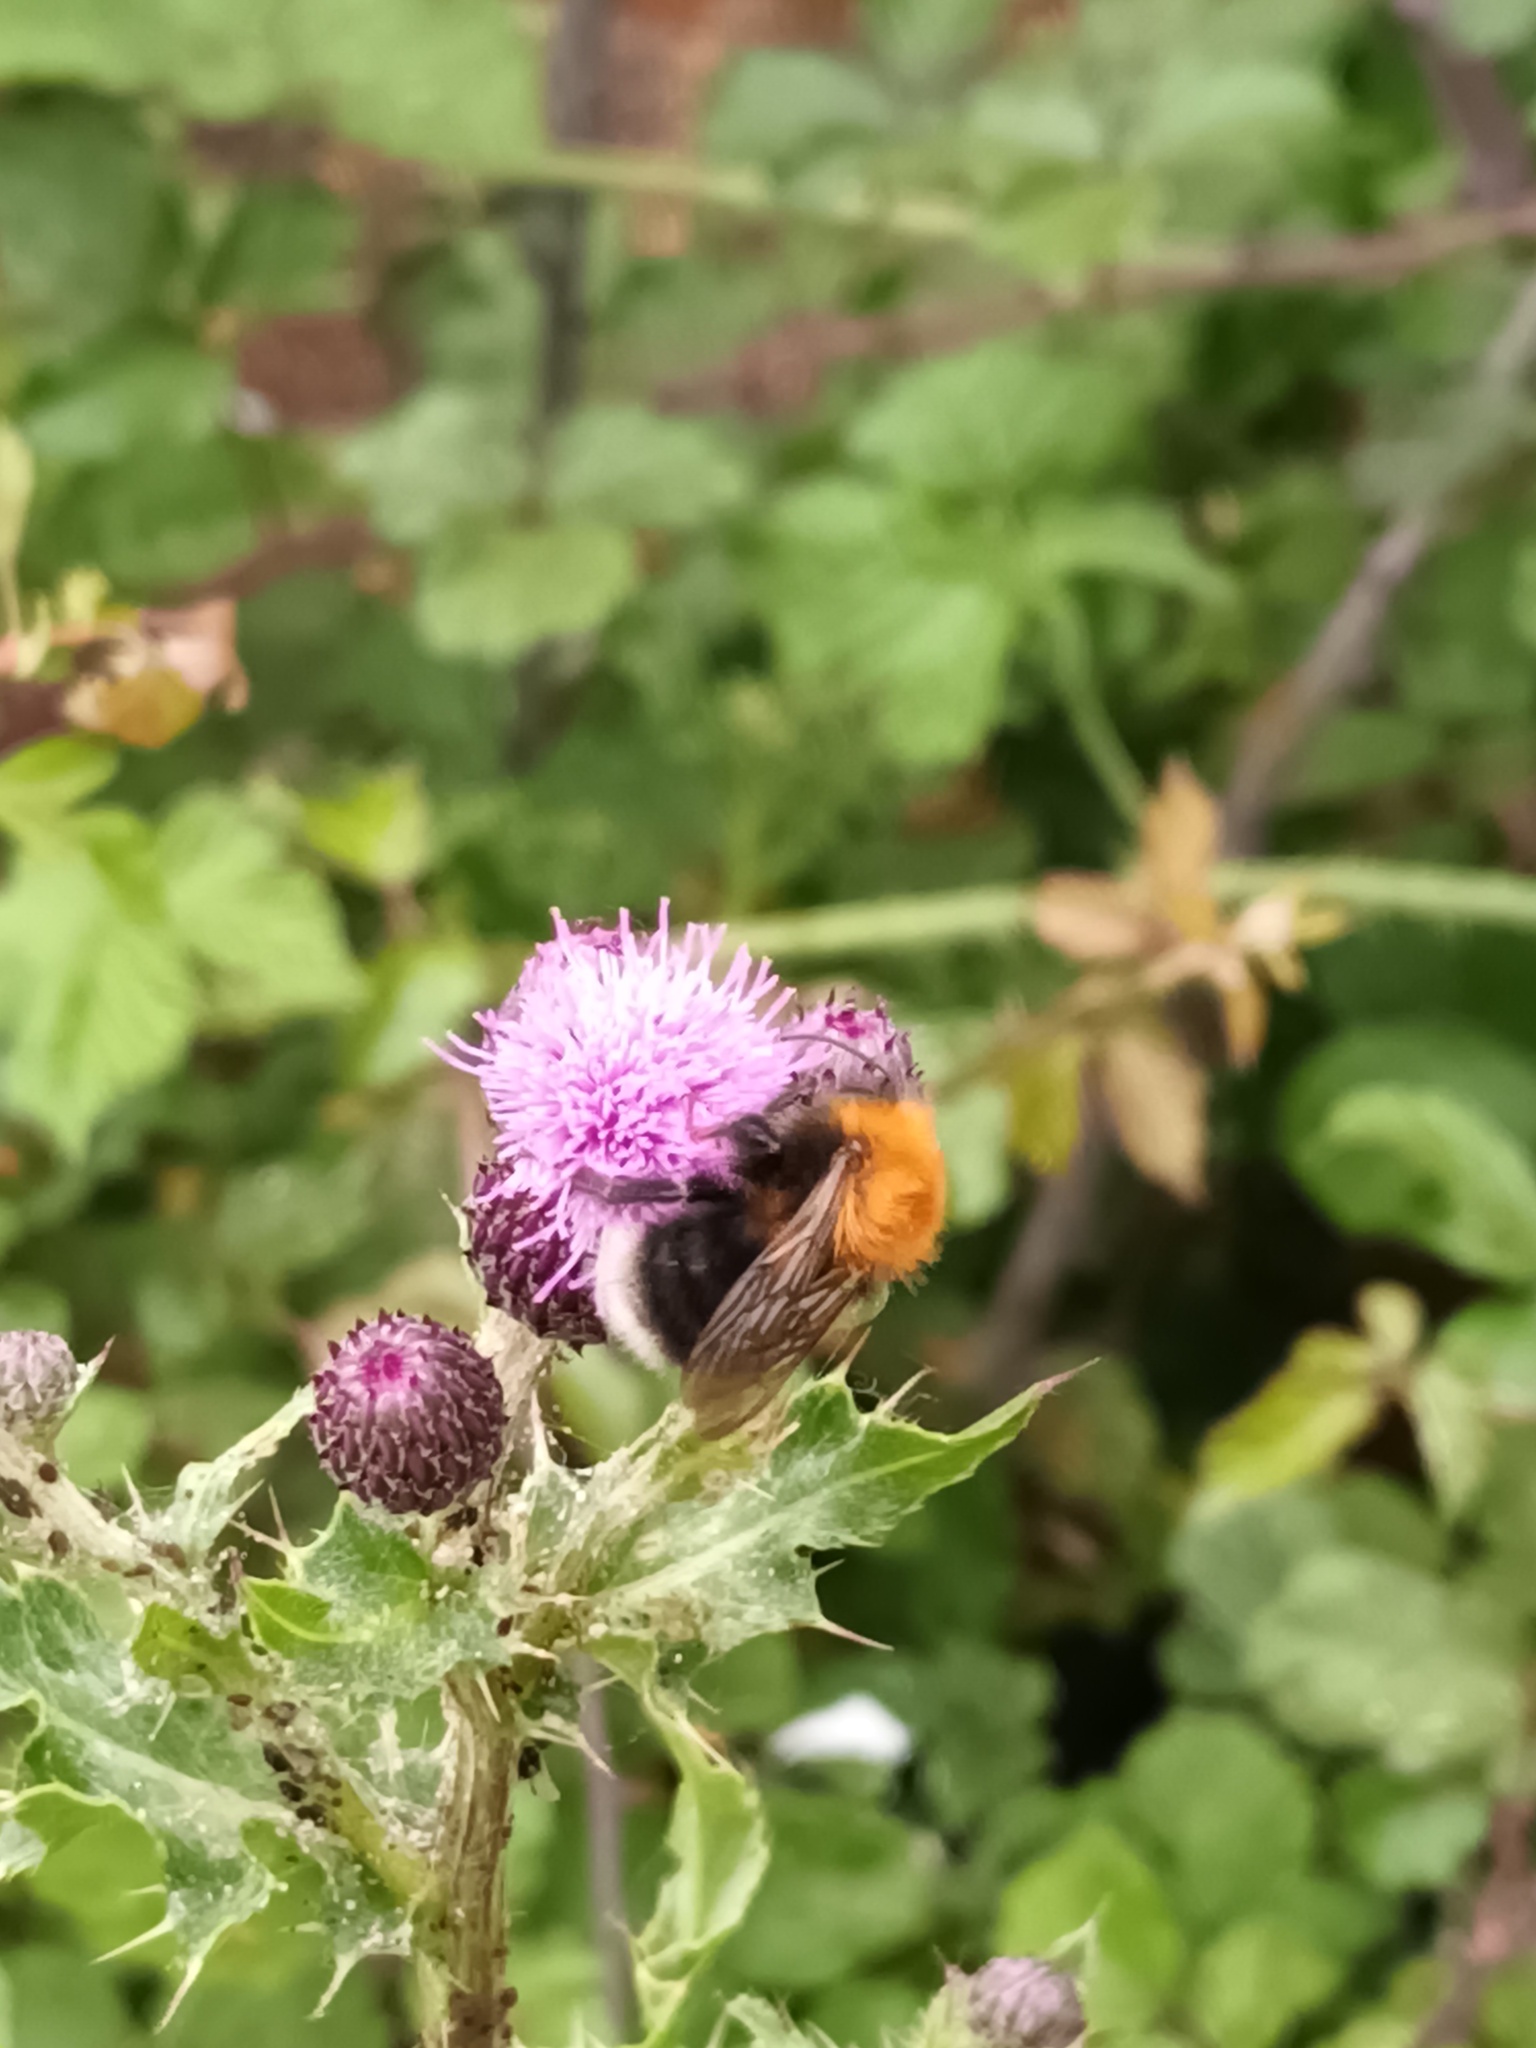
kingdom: Animalia
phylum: Arthropoda
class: Insecta
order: Hymenoptera
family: Apidae
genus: Bombus
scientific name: Bombus hypnorum
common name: New garden bumblebee
